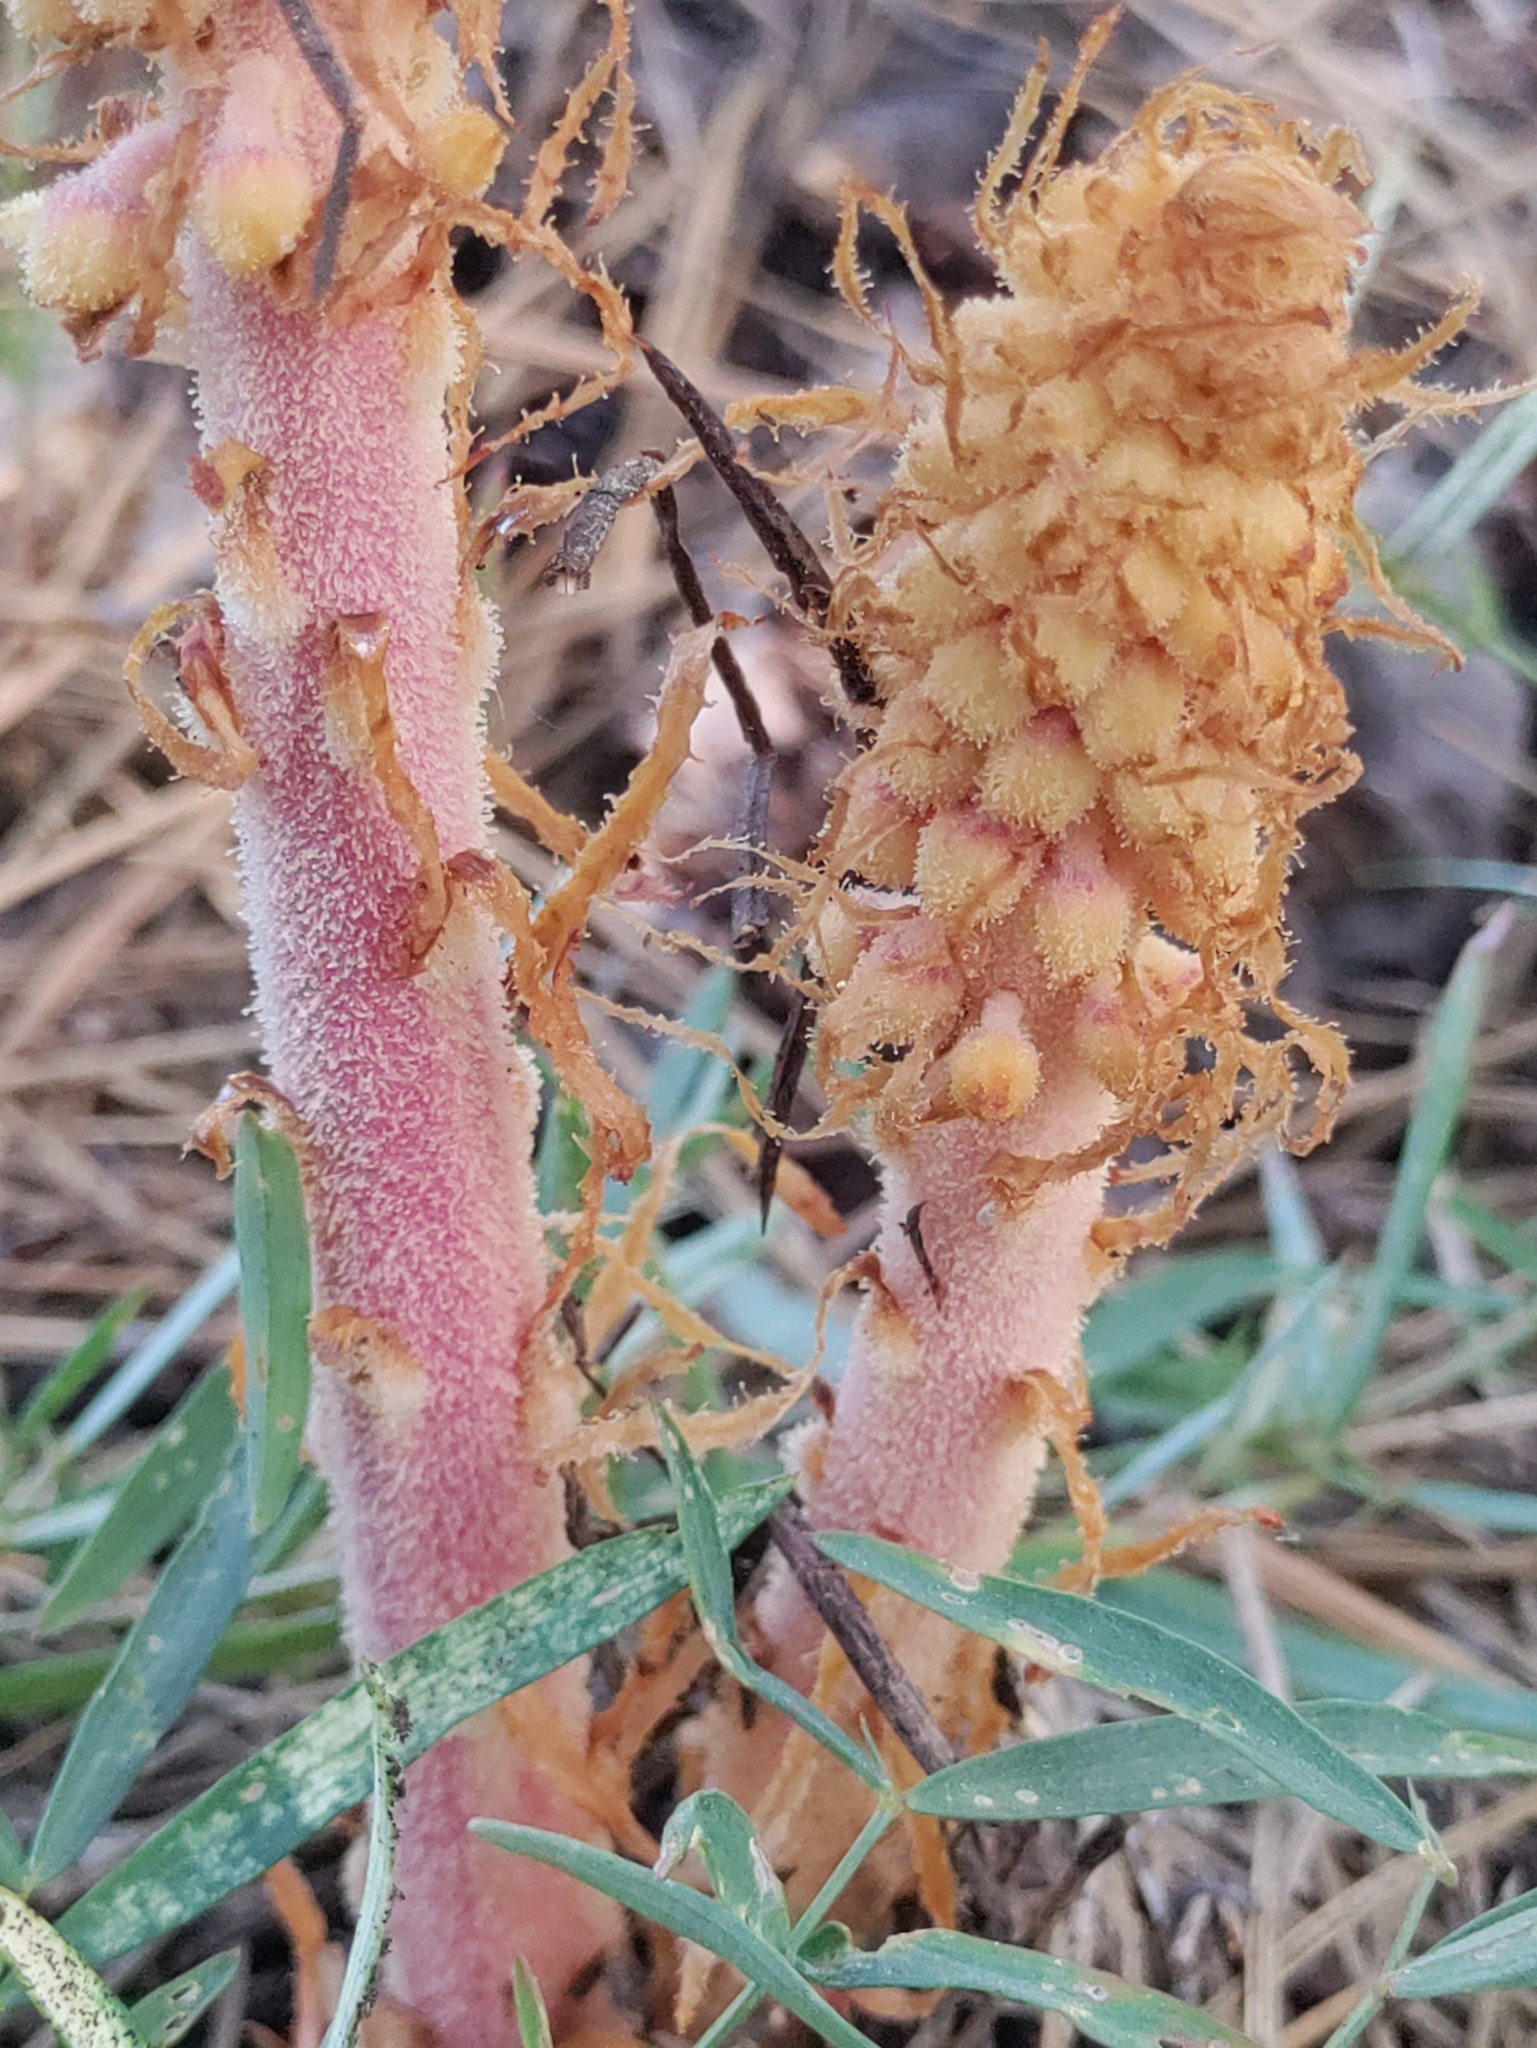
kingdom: Plantae
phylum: Tracheophyta
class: Magnoliopsida
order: Ericales
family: Ericaceae
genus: Pterospora
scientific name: Pterospora andromedea
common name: Giant bird's-nest
